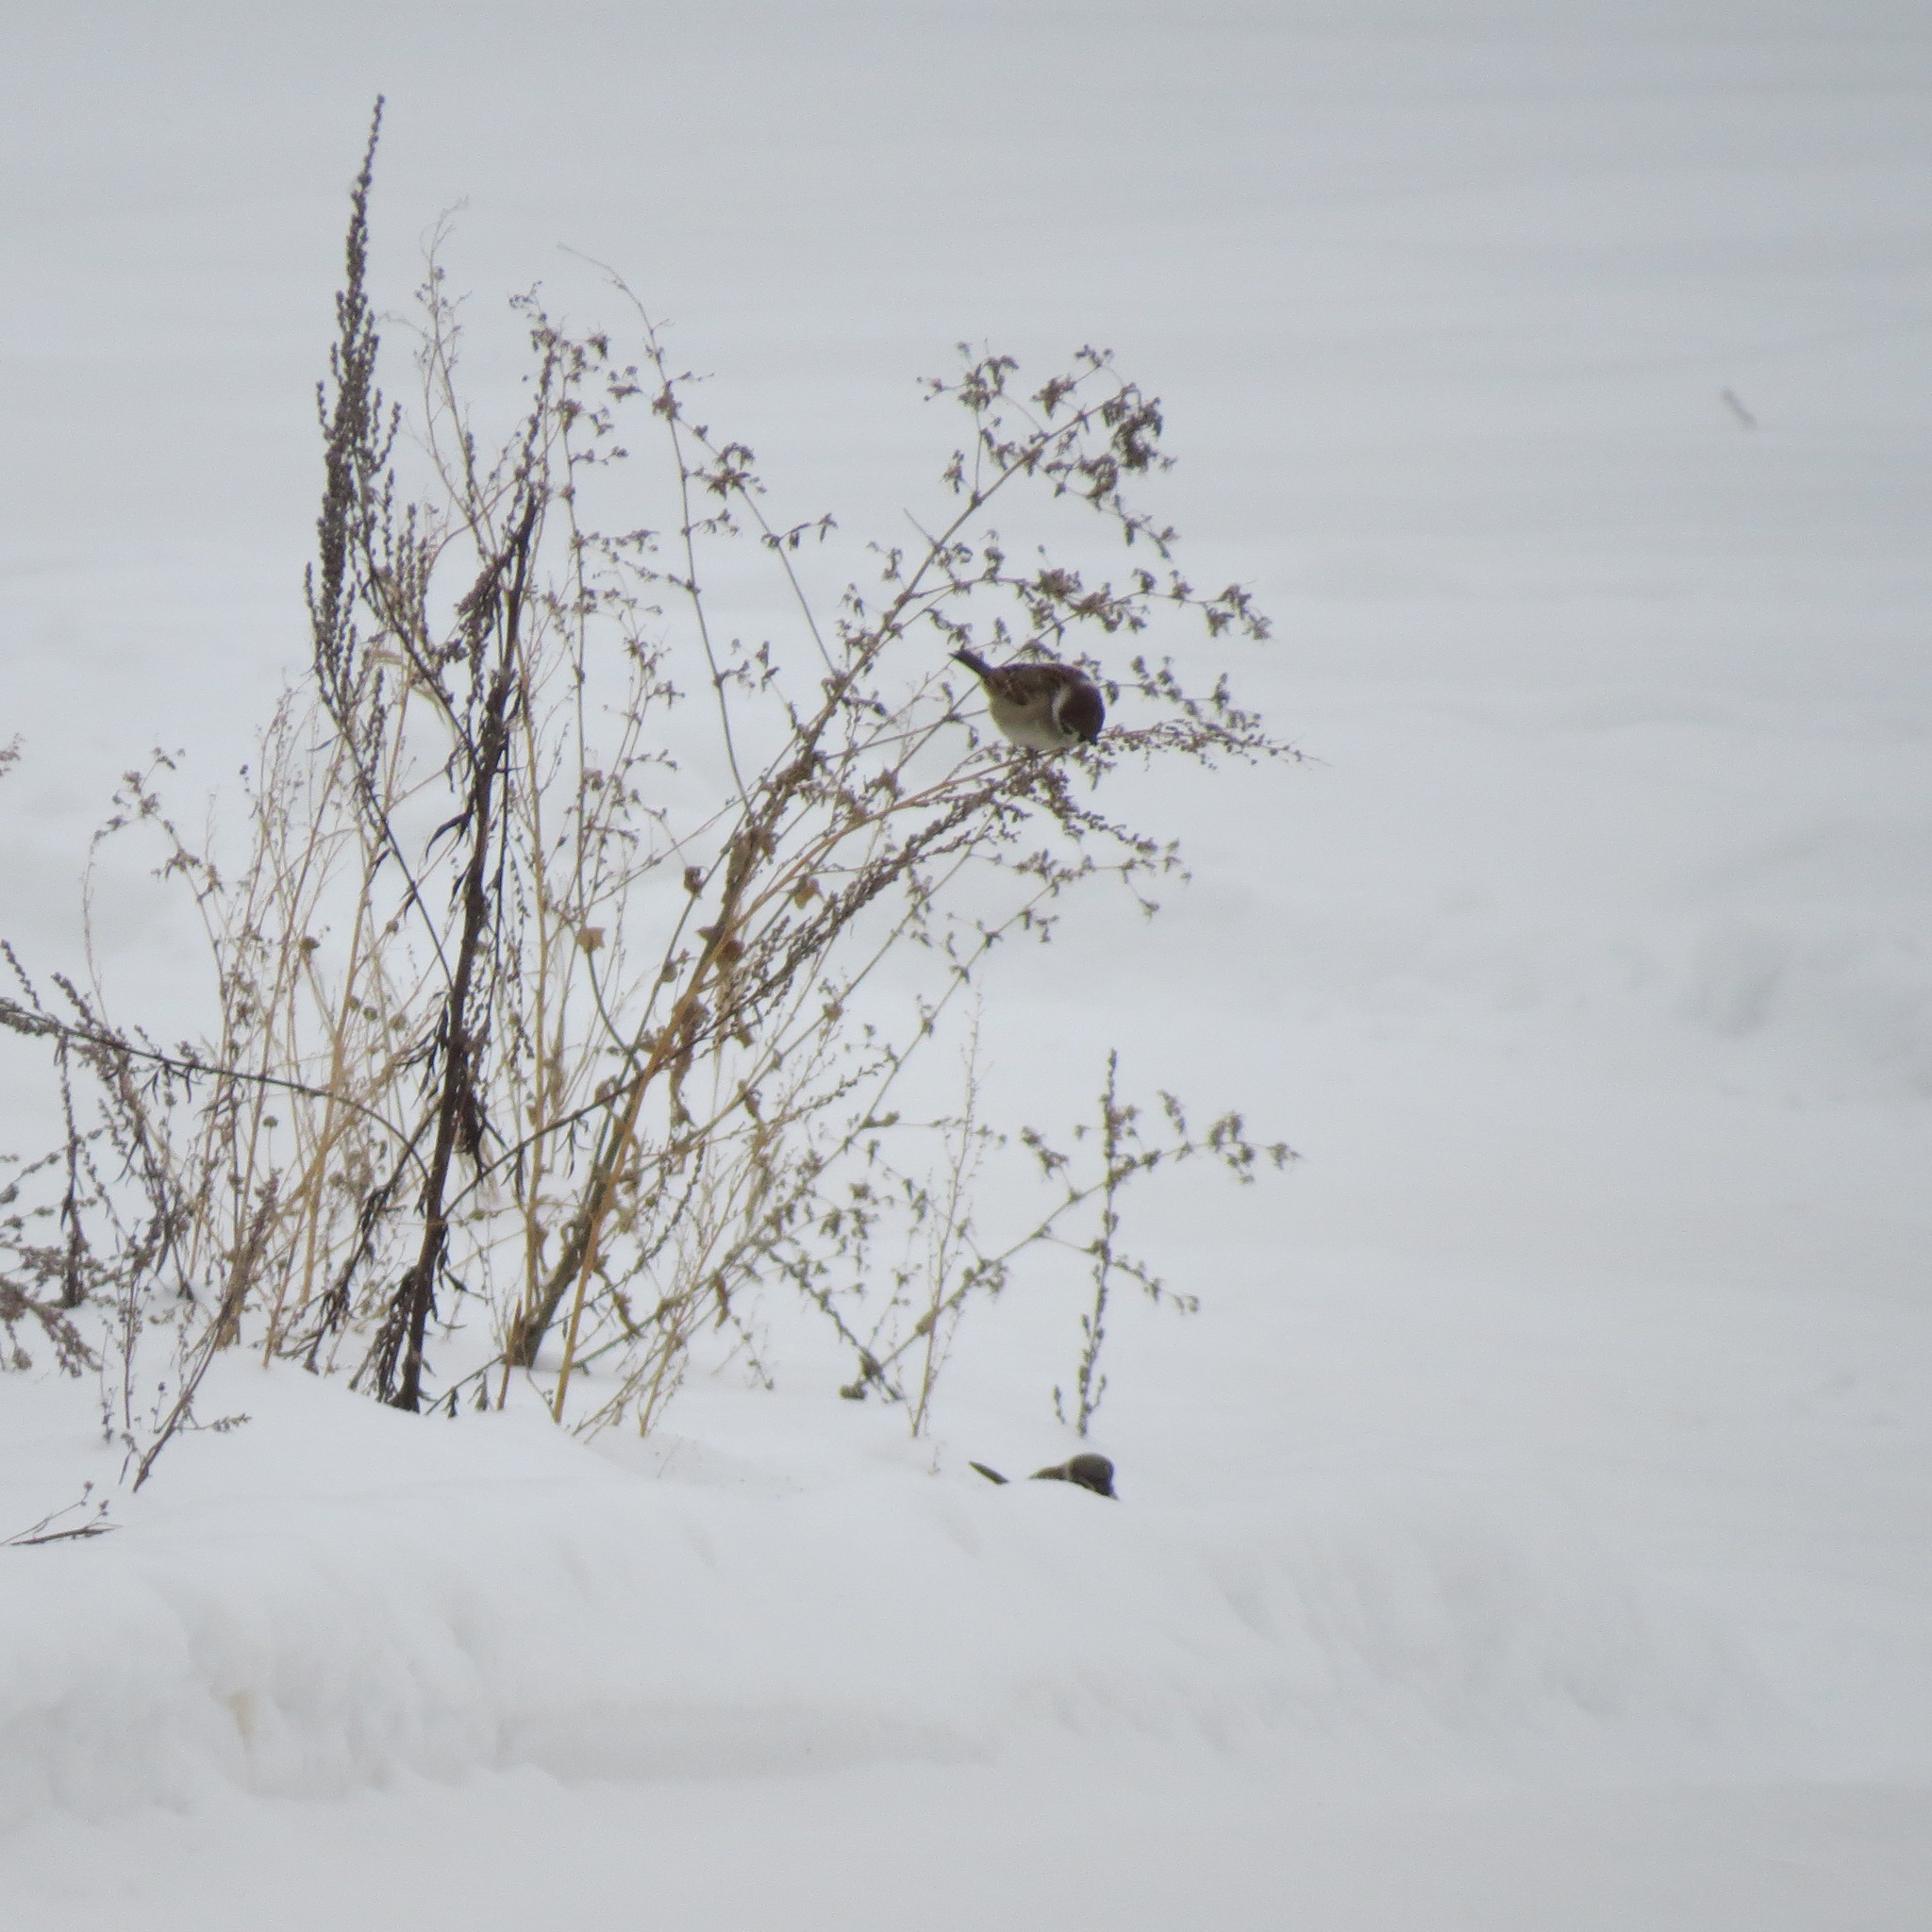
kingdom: Animalia
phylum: Chordata
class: Aves
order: Passeriformes
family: Passeridae
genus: Passer
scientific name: Passer montanus
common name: Eurasian tree sparrow
